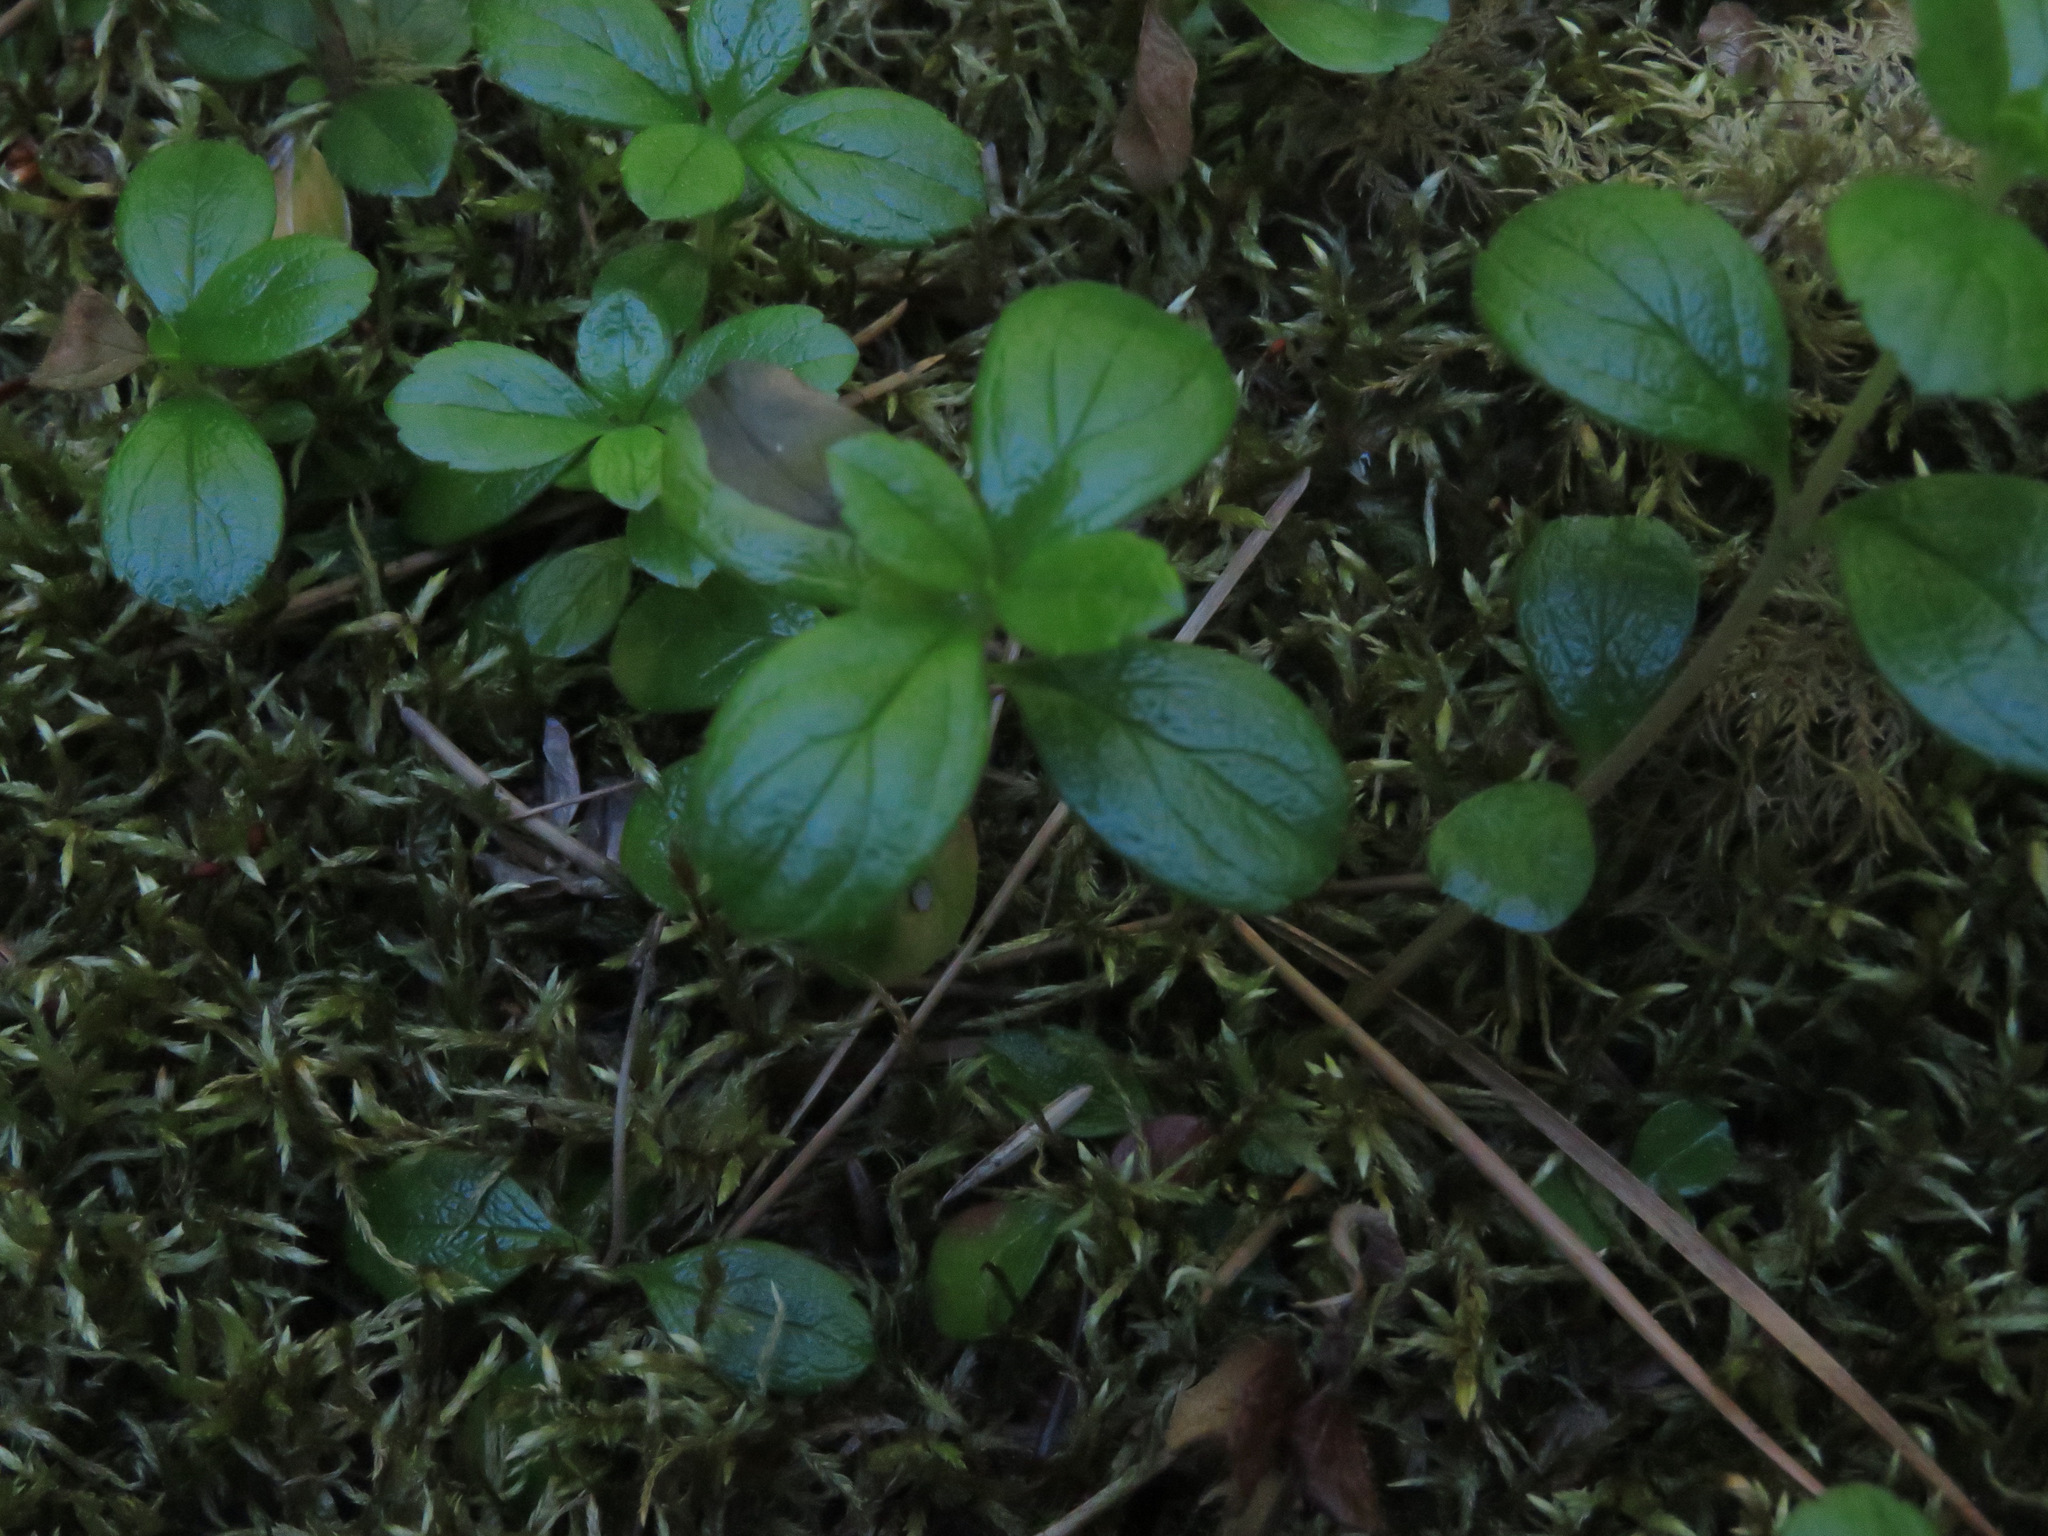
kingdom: Plantae
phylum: Tracheophyta
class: Magnoliopsida
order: Dipsacales
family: Caprifoliaceae
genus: Linnaea
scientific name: Linnaea borealis
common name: Twinflower
